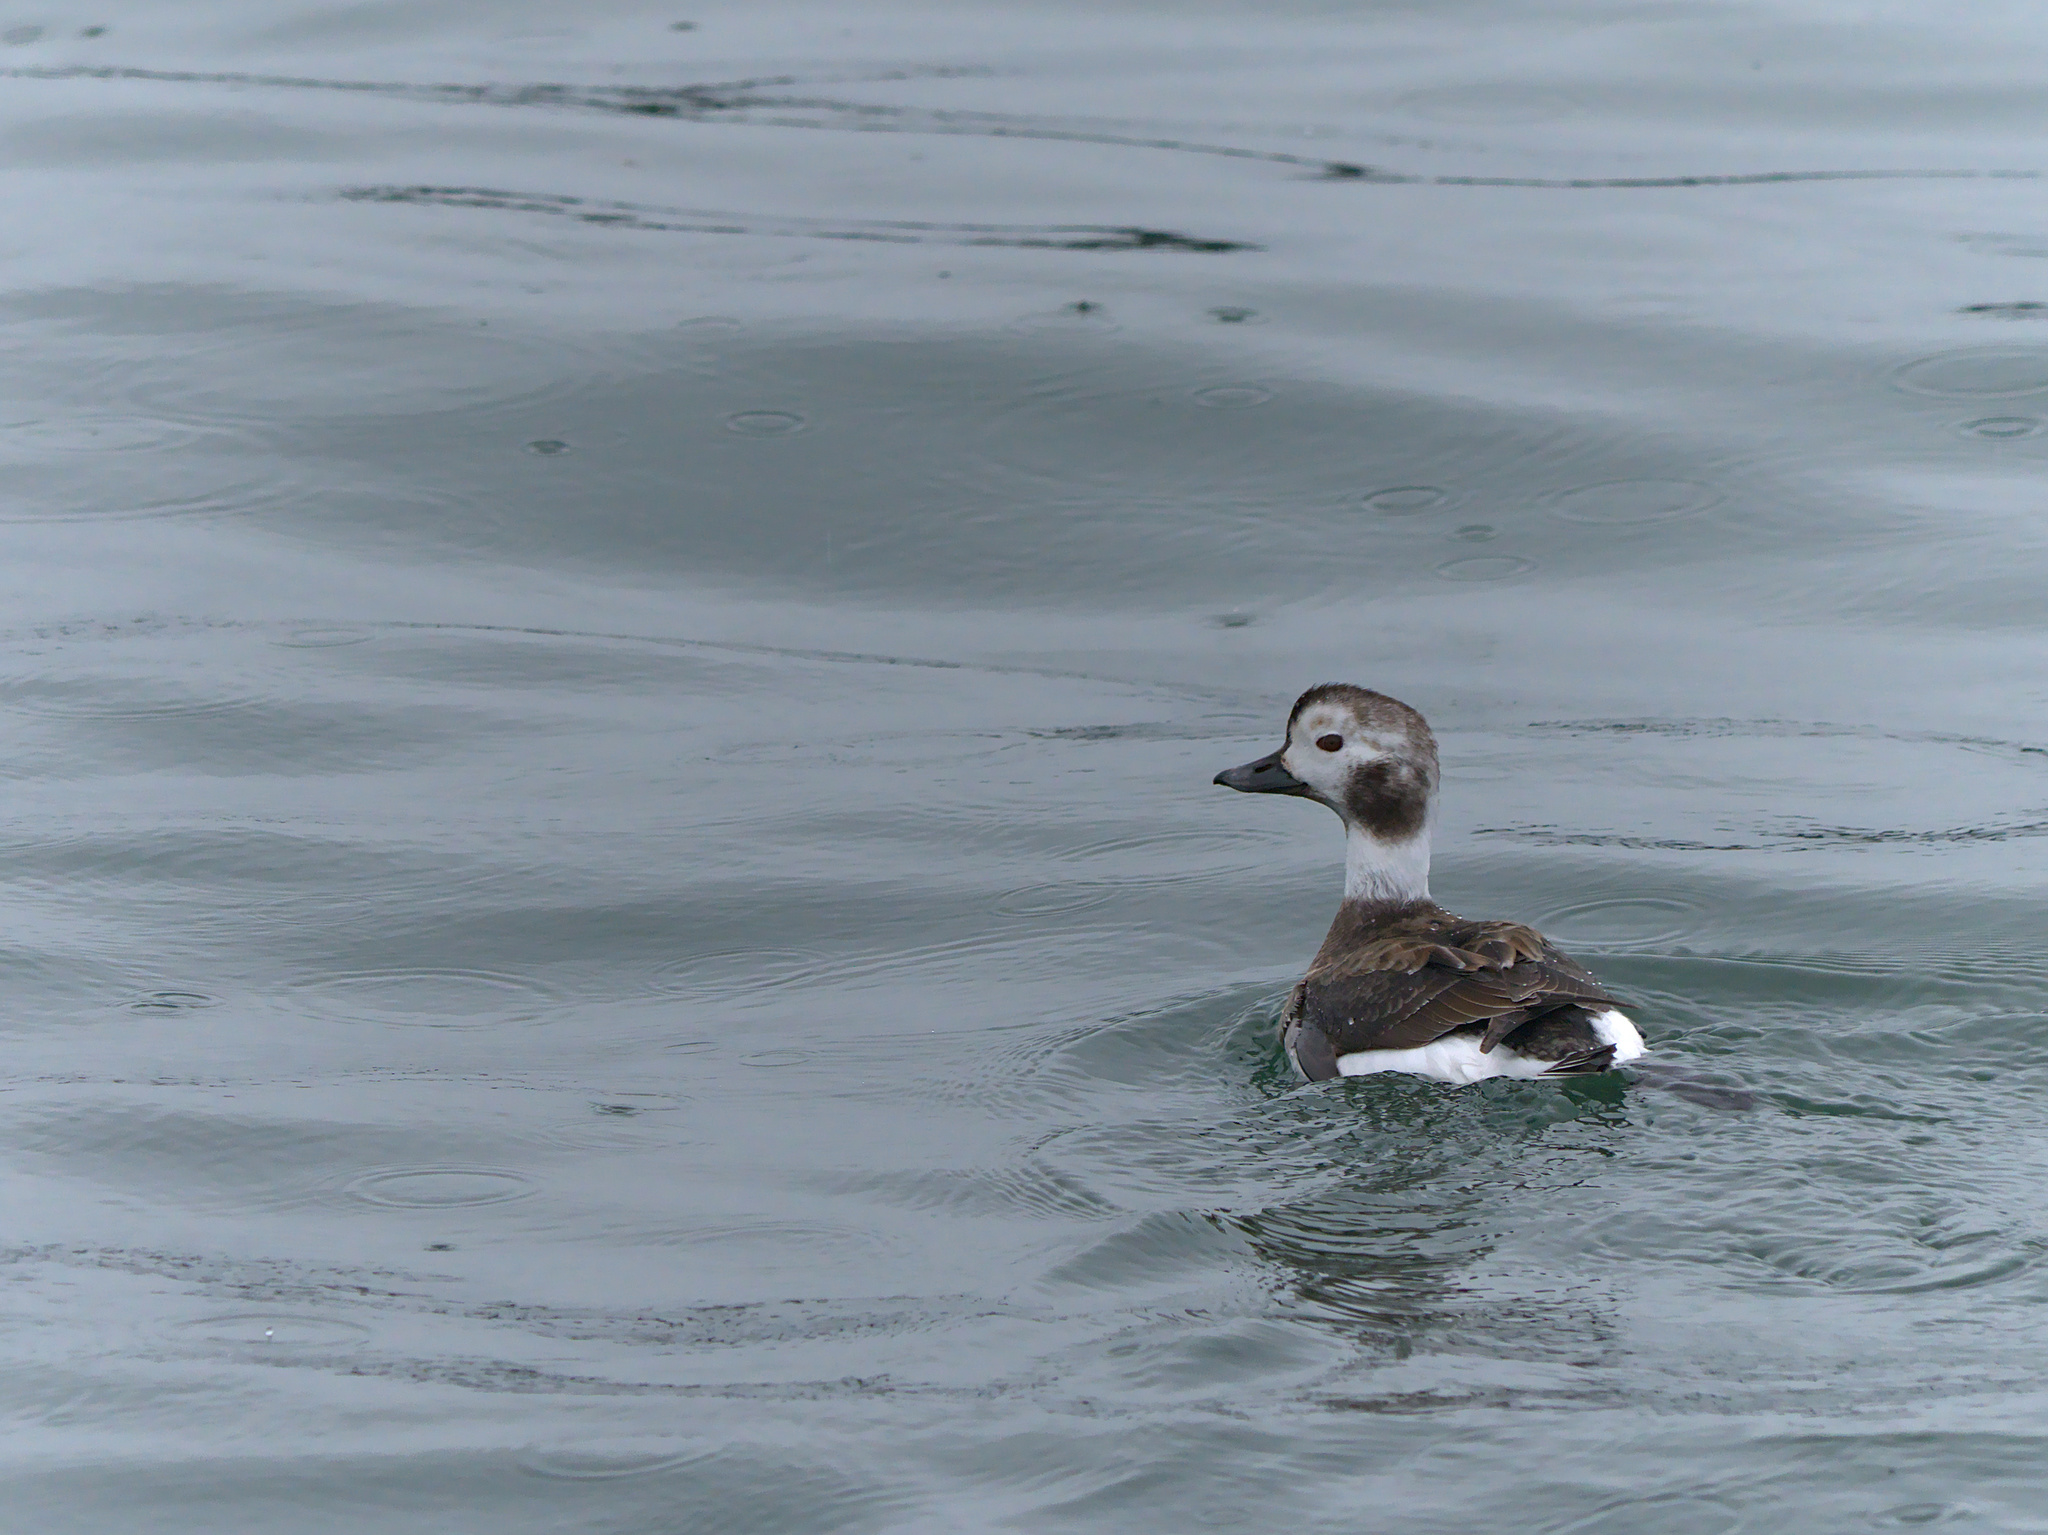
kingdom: Animalia
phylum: Chordata
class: Aves
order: Anseriformes
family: Anatidae
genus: Clangula
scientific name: Clangula hyemalis
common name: Long-tailed duck
